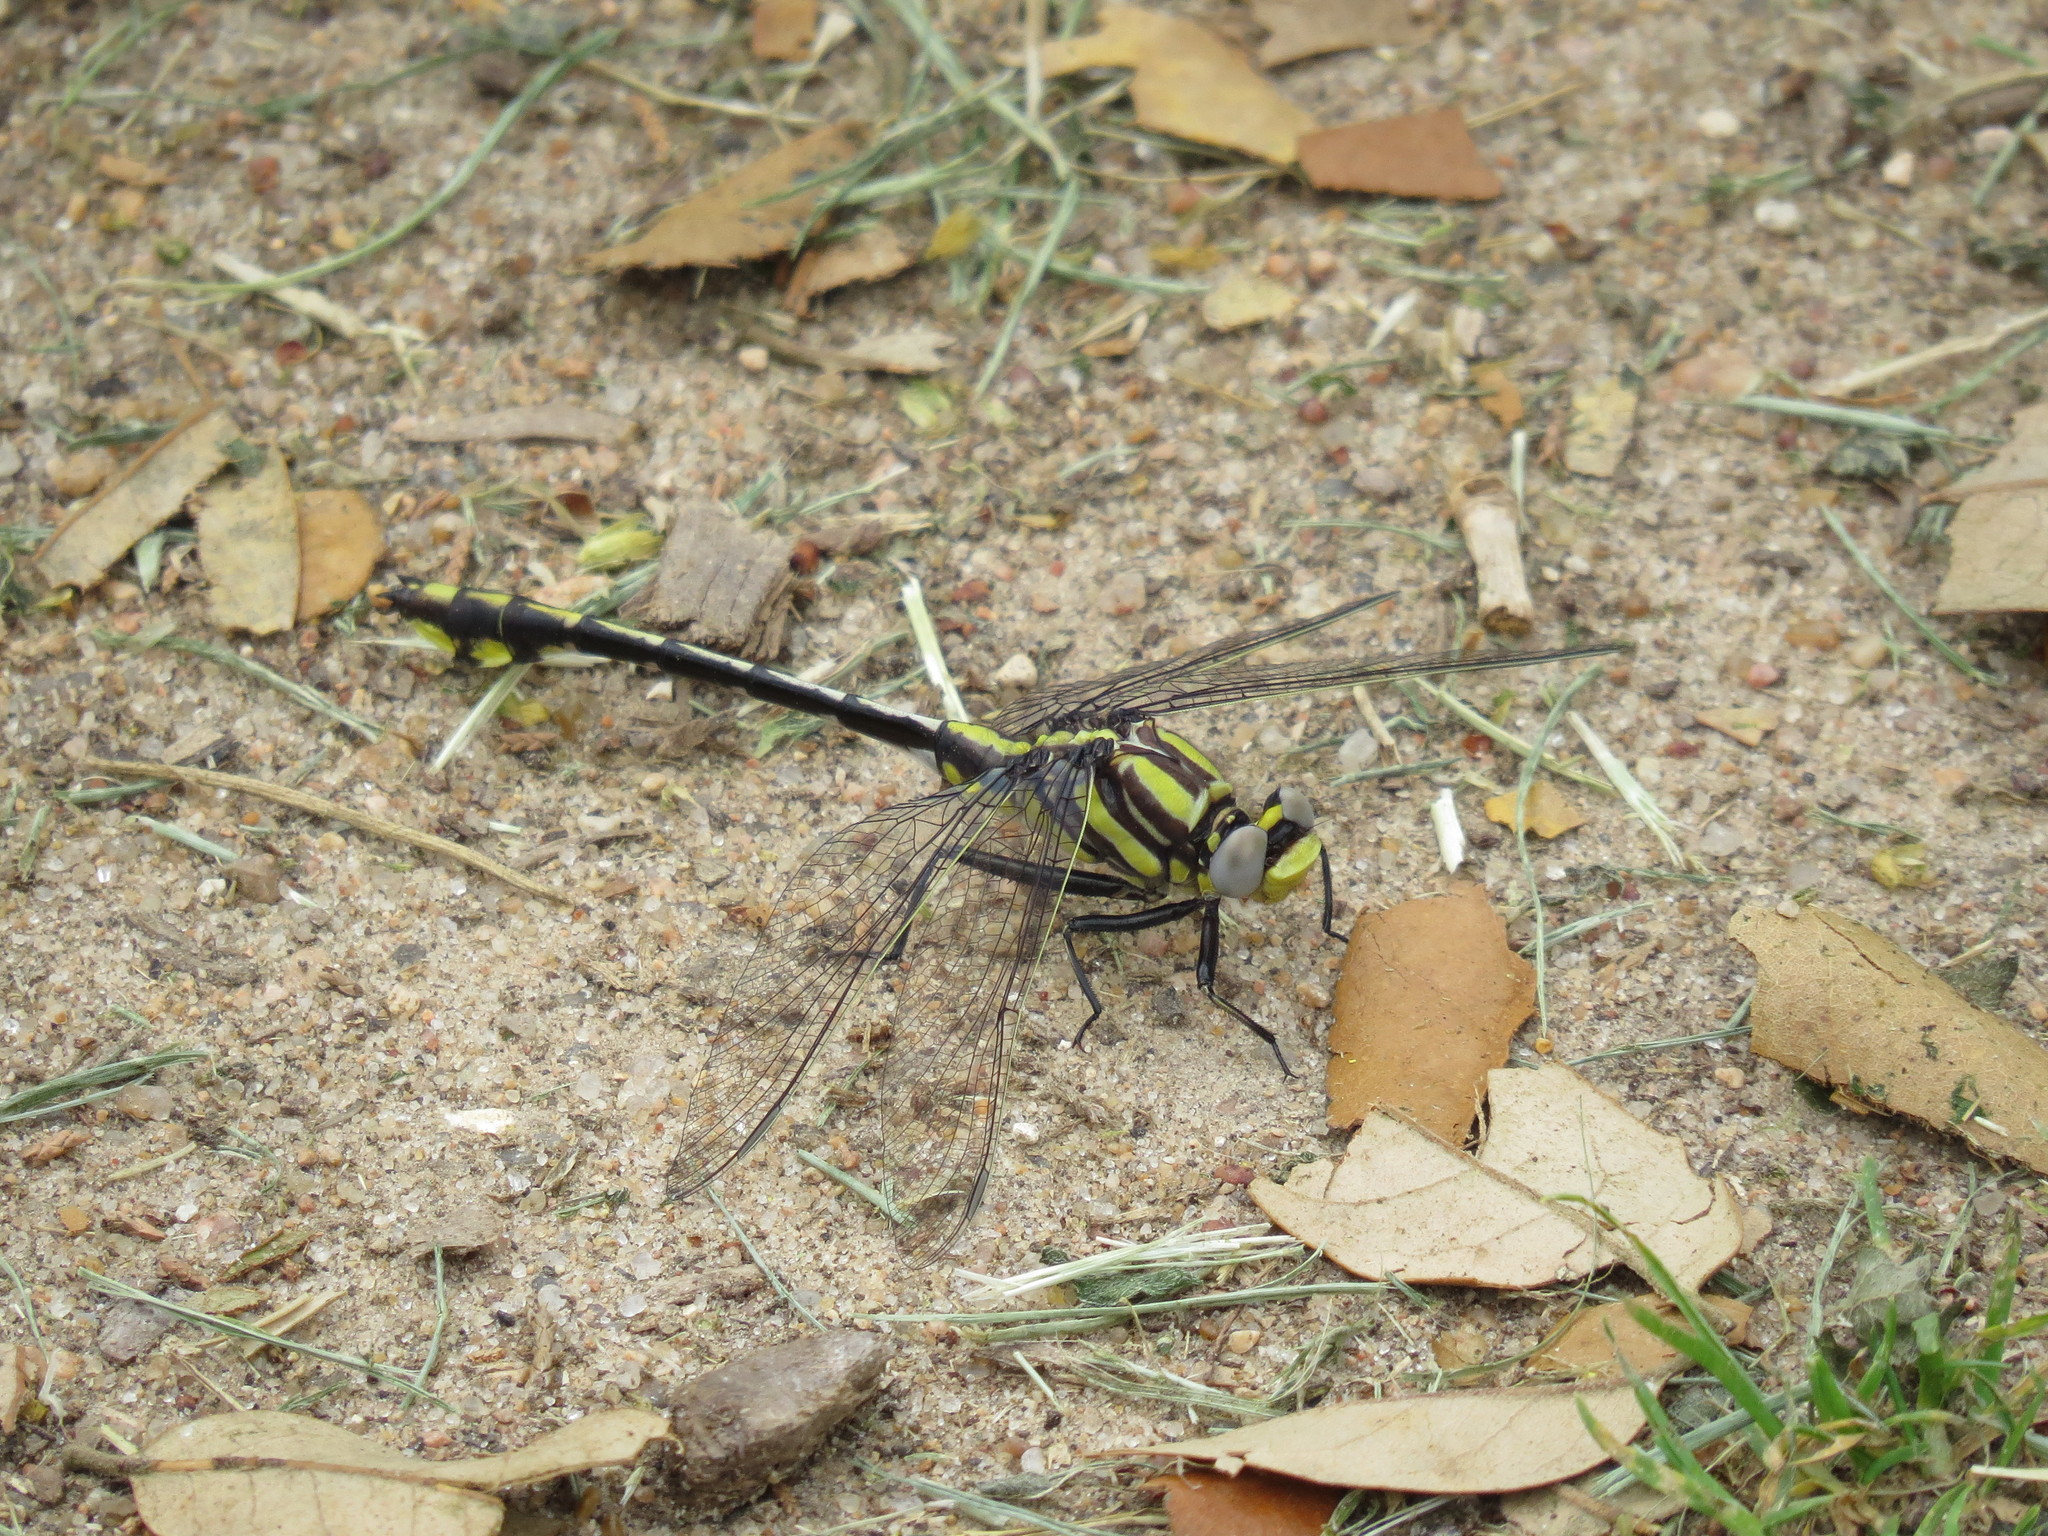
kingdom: Animalia
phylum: Arthropoda
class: Insecta
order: Odonata
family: Gomphidae
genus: Gomphurus
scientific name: Gomphurus externus
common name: Plains clubtail
